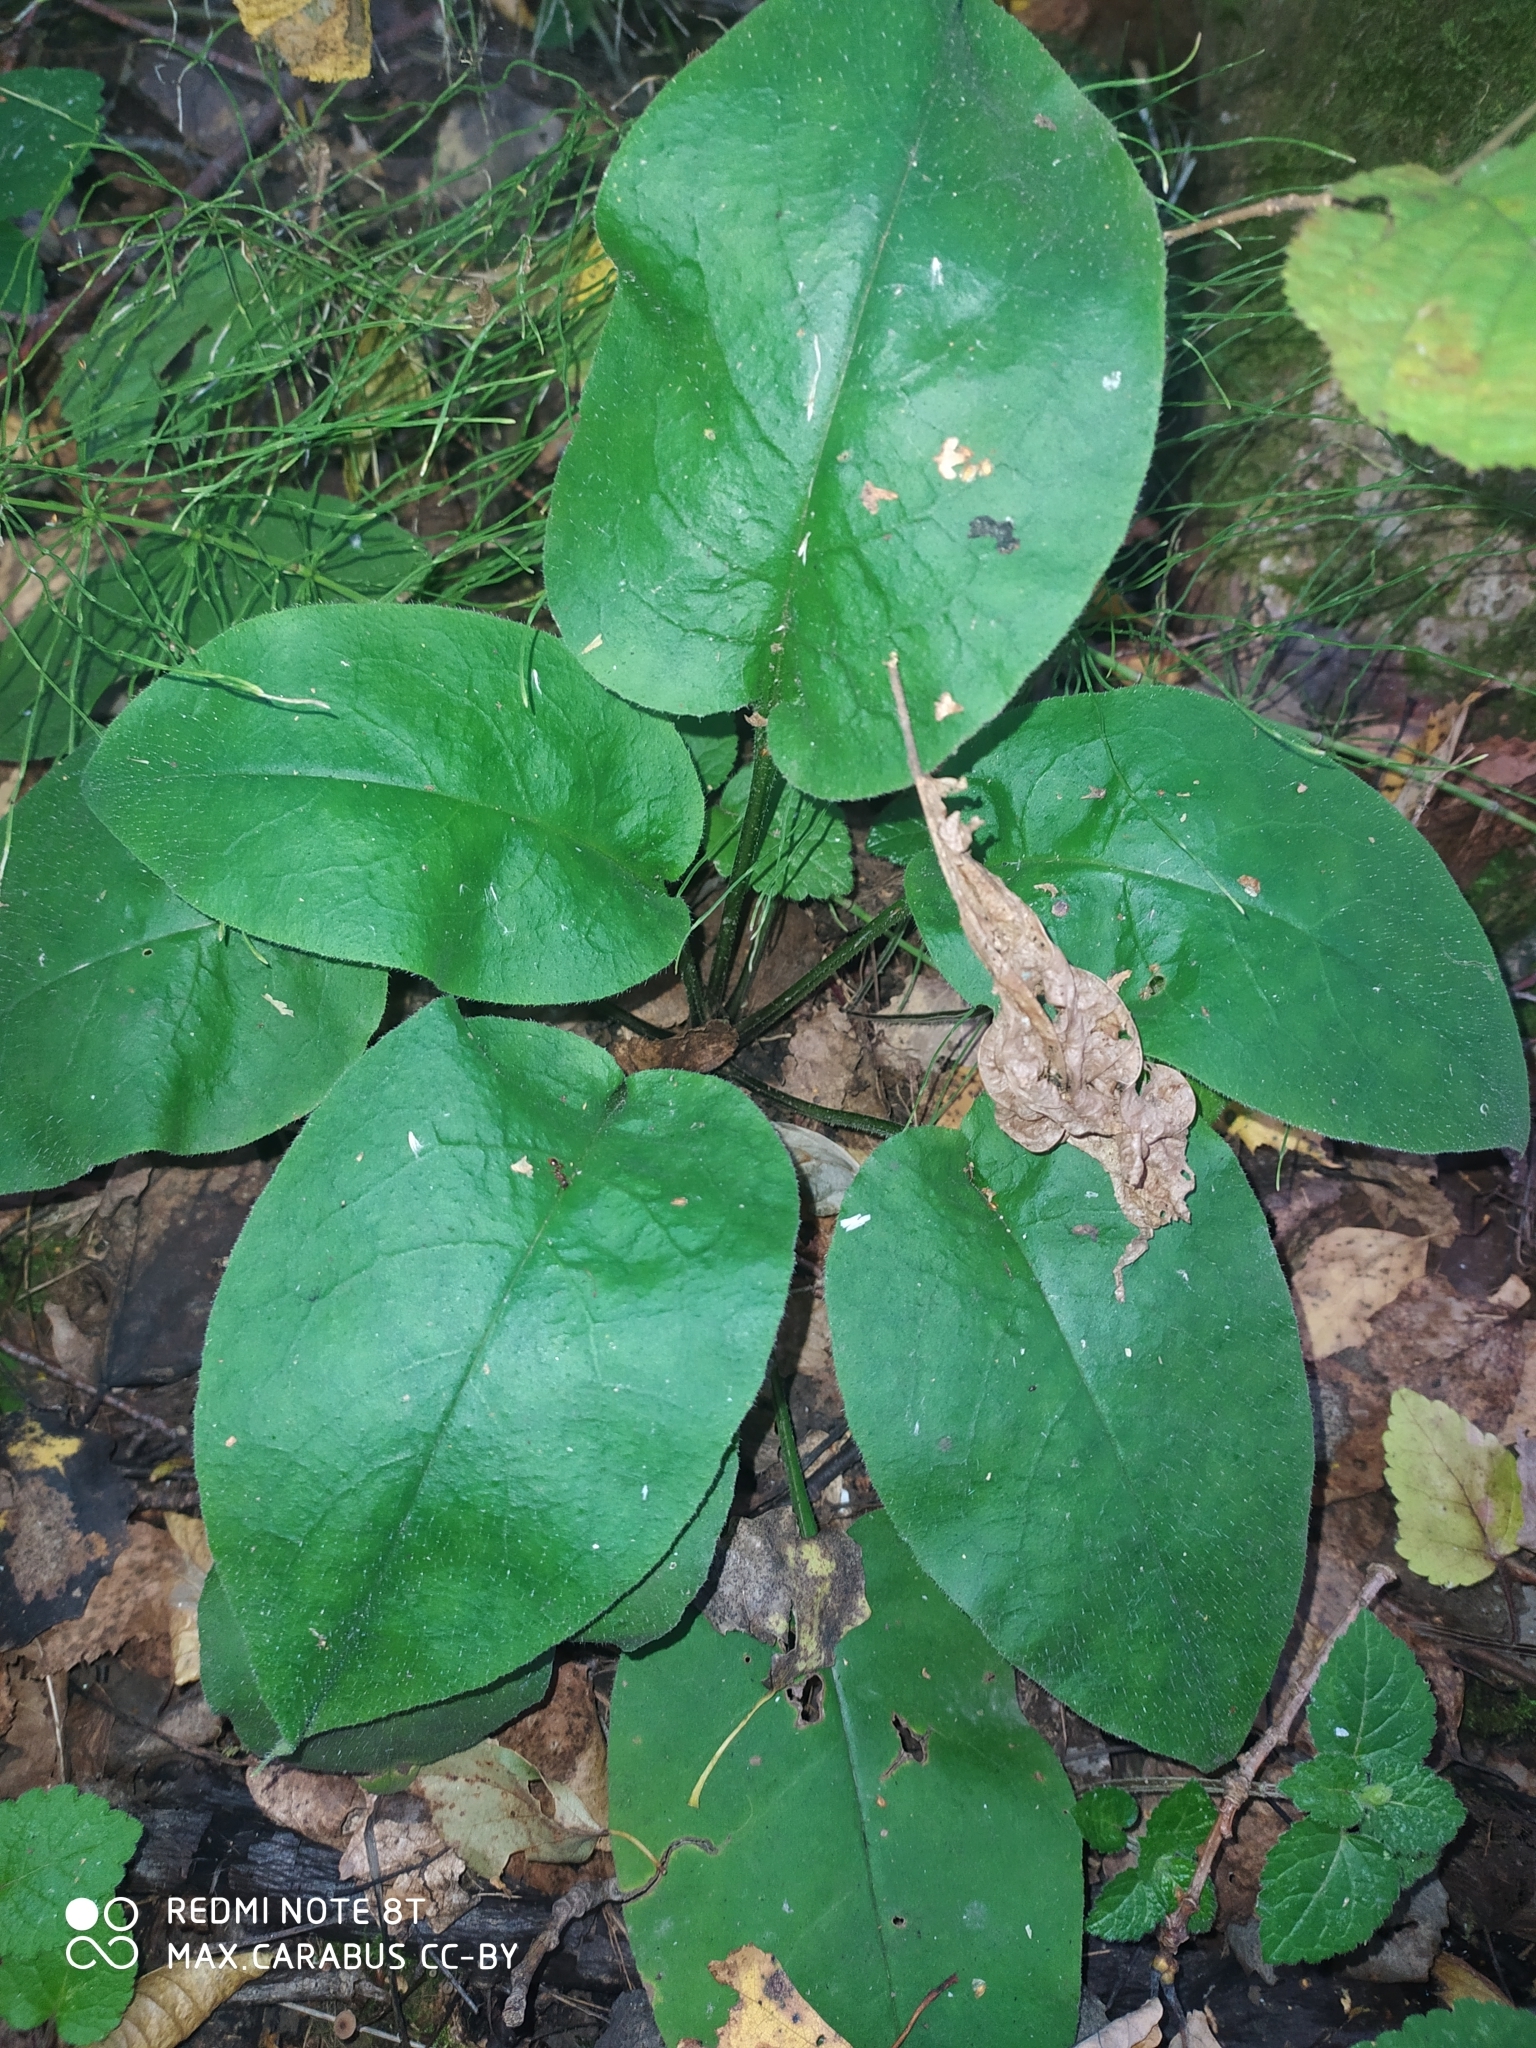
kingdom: Plantae
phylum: Tracheophyta
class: Magnoliopsida
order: Boraginales
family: Boraginaceae
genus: Pulmonaria
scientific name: Pulmonaria obscura
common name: Suffolk lungwort
